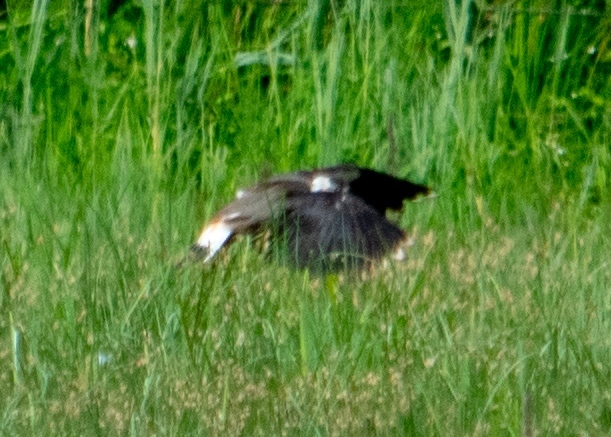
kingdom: Animalia
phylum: Chordata
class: Aves
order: Charadriiformes
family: Charadriidae
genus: Vanellus
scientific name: Vanellus vanellus
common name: Northern lapwing
